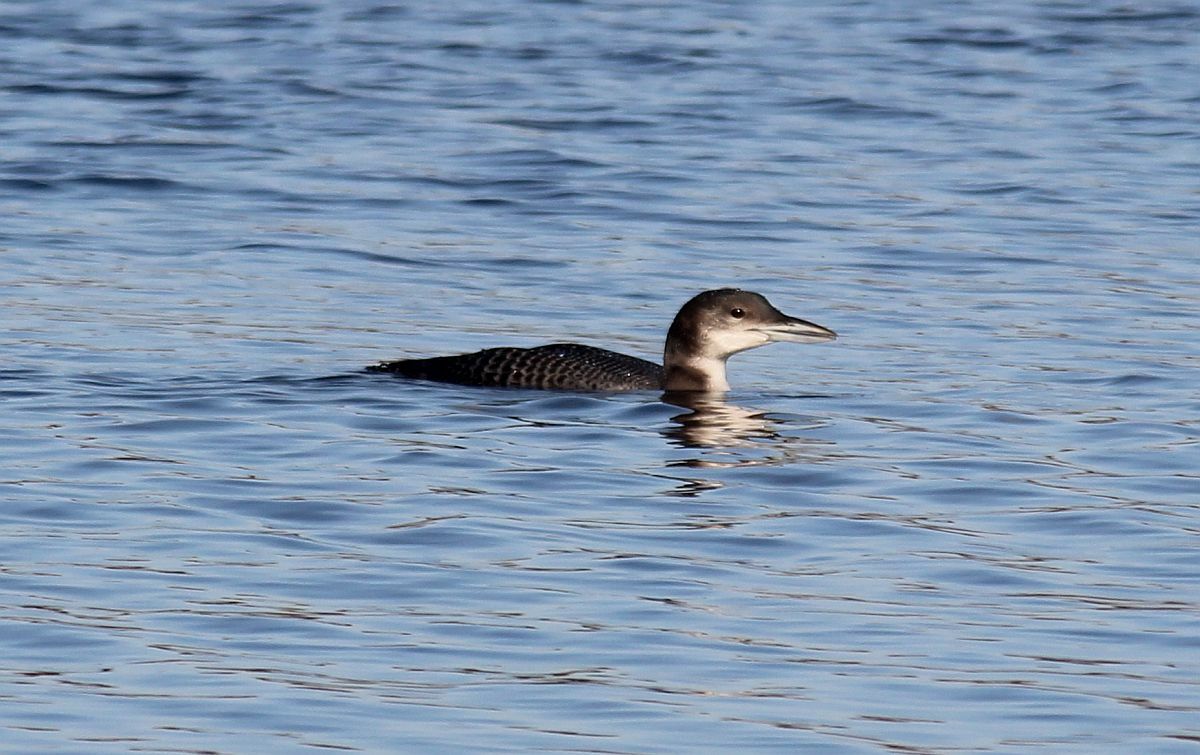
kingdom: Animalia
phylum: Chordata
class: Aves
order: Gaviiformes
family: Gaviidae
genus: Gavia
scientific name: Gavia immer
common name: Common loon
